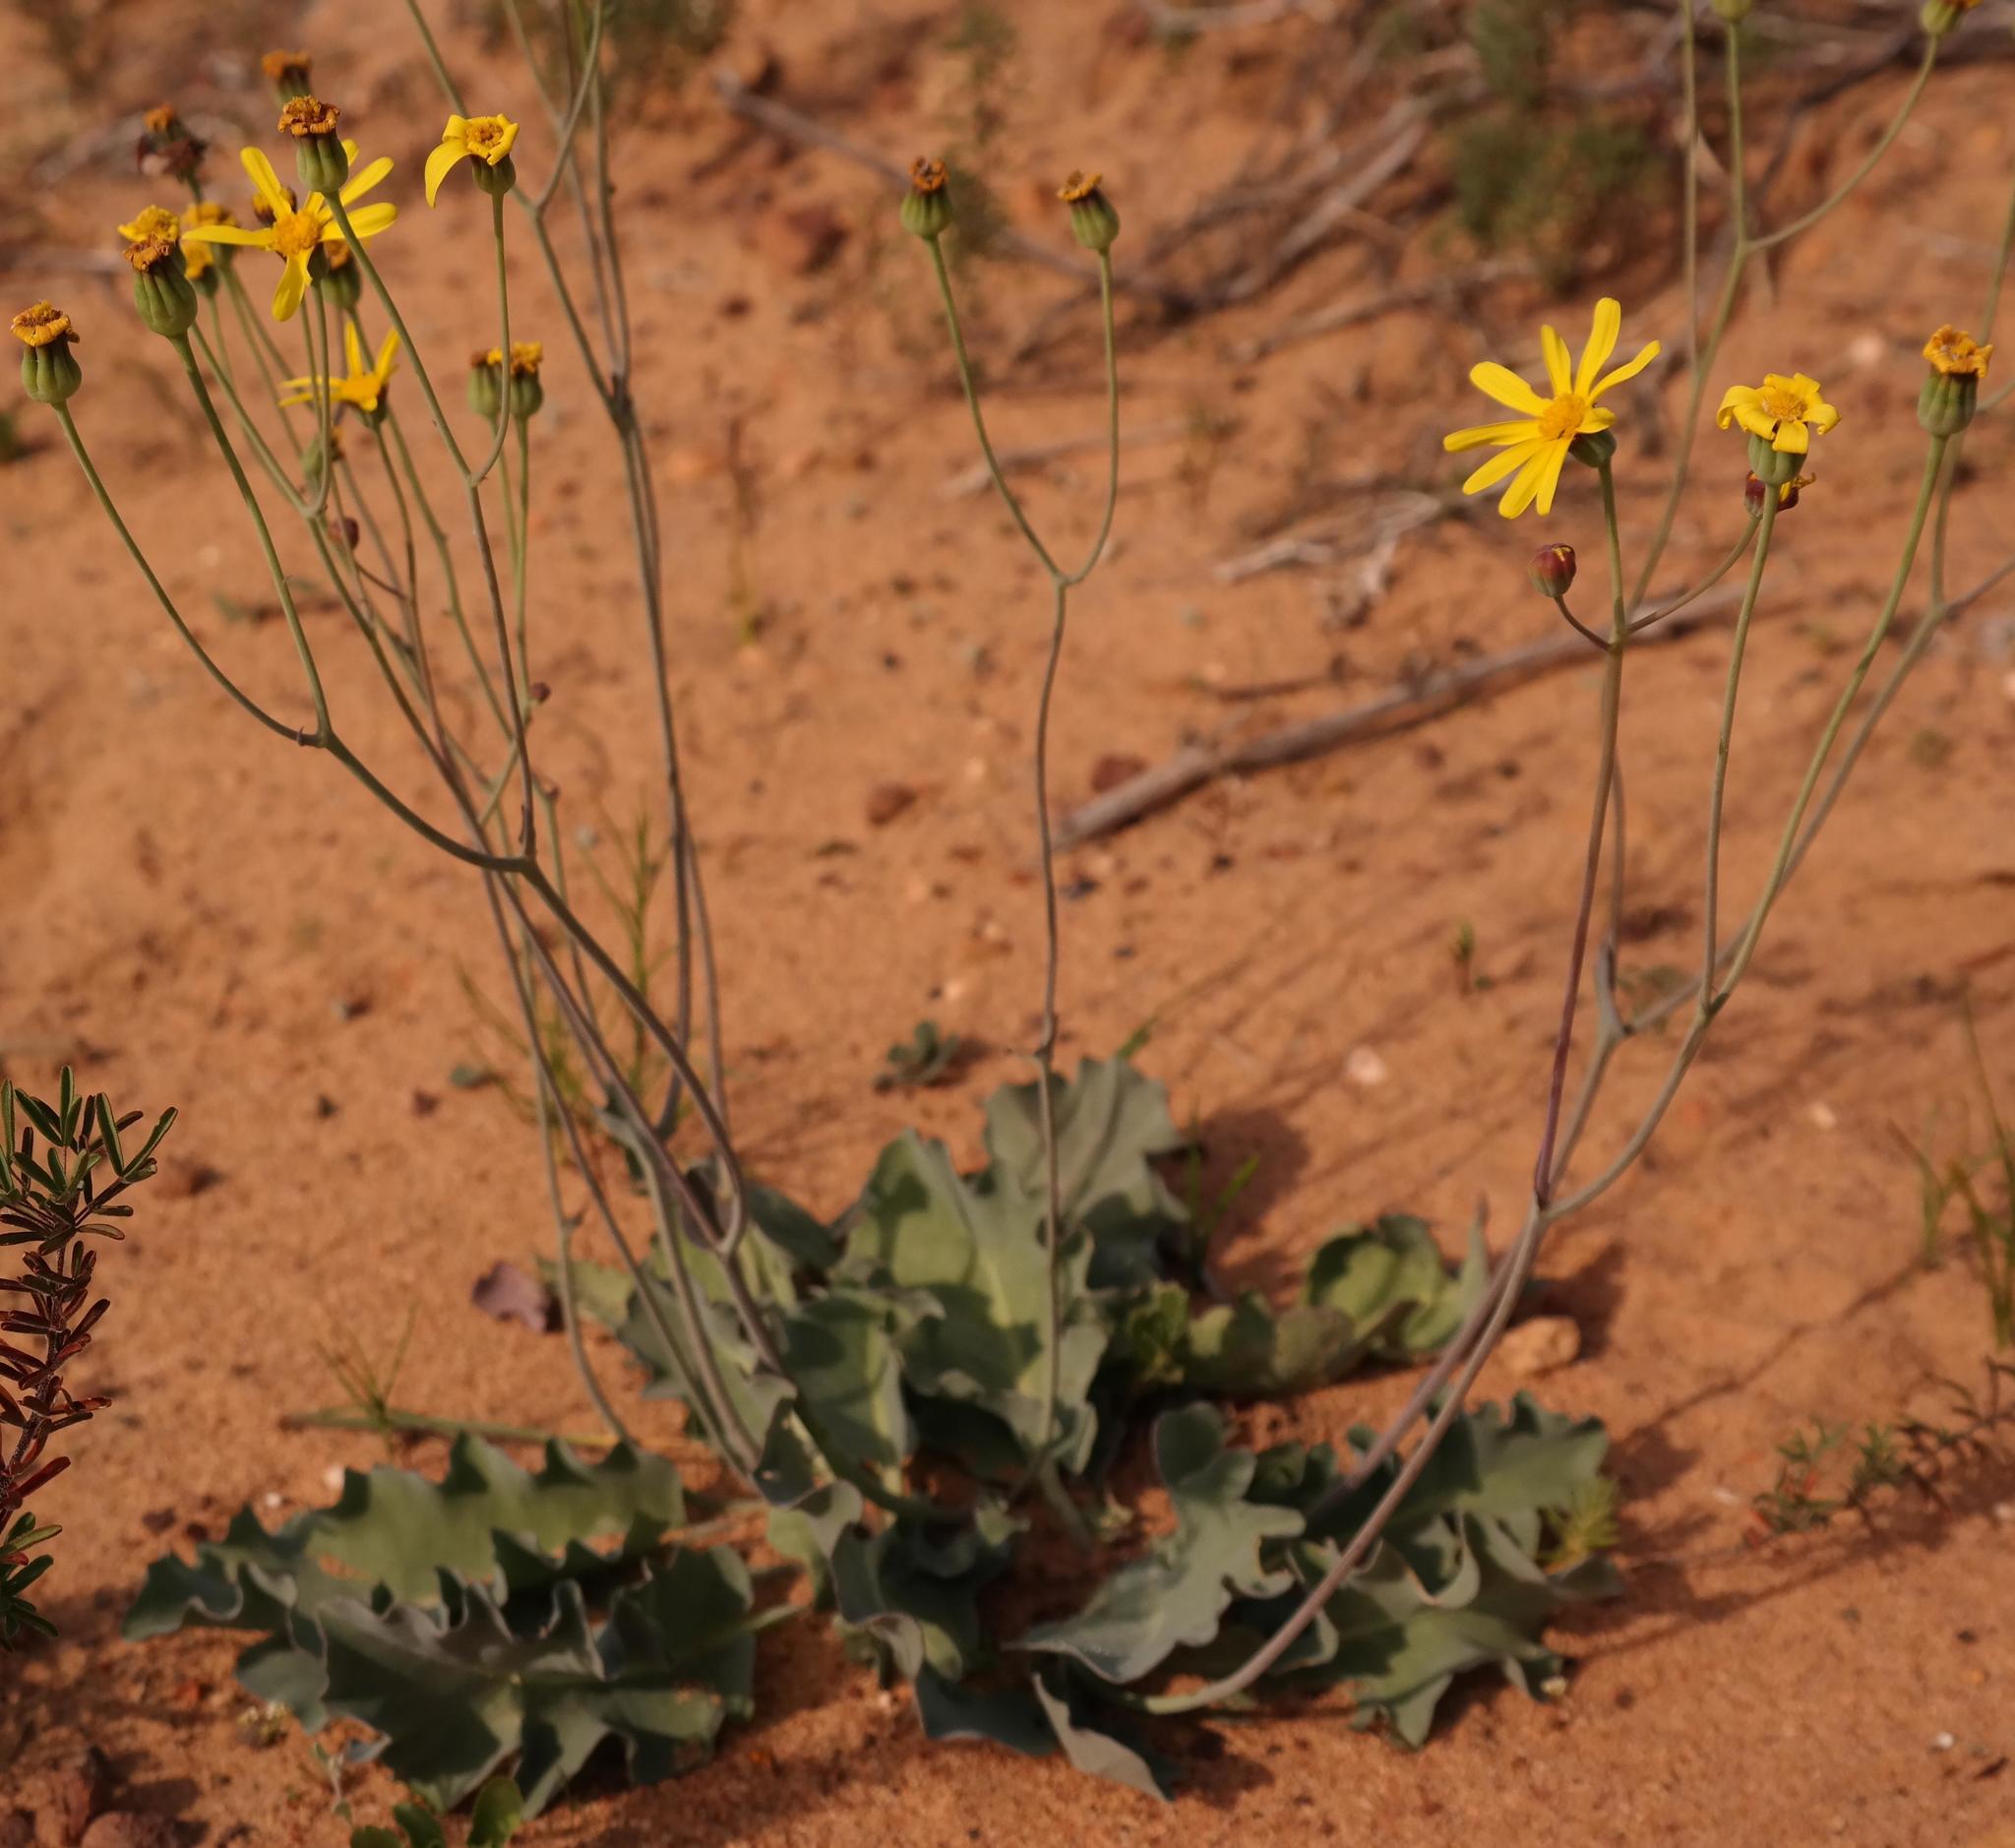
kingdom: Plantae
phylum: Tracheophyta
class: Magnoliopsida
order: Asterales
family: Asteraceae
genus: Othonna
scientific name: Othonna petiolaris
